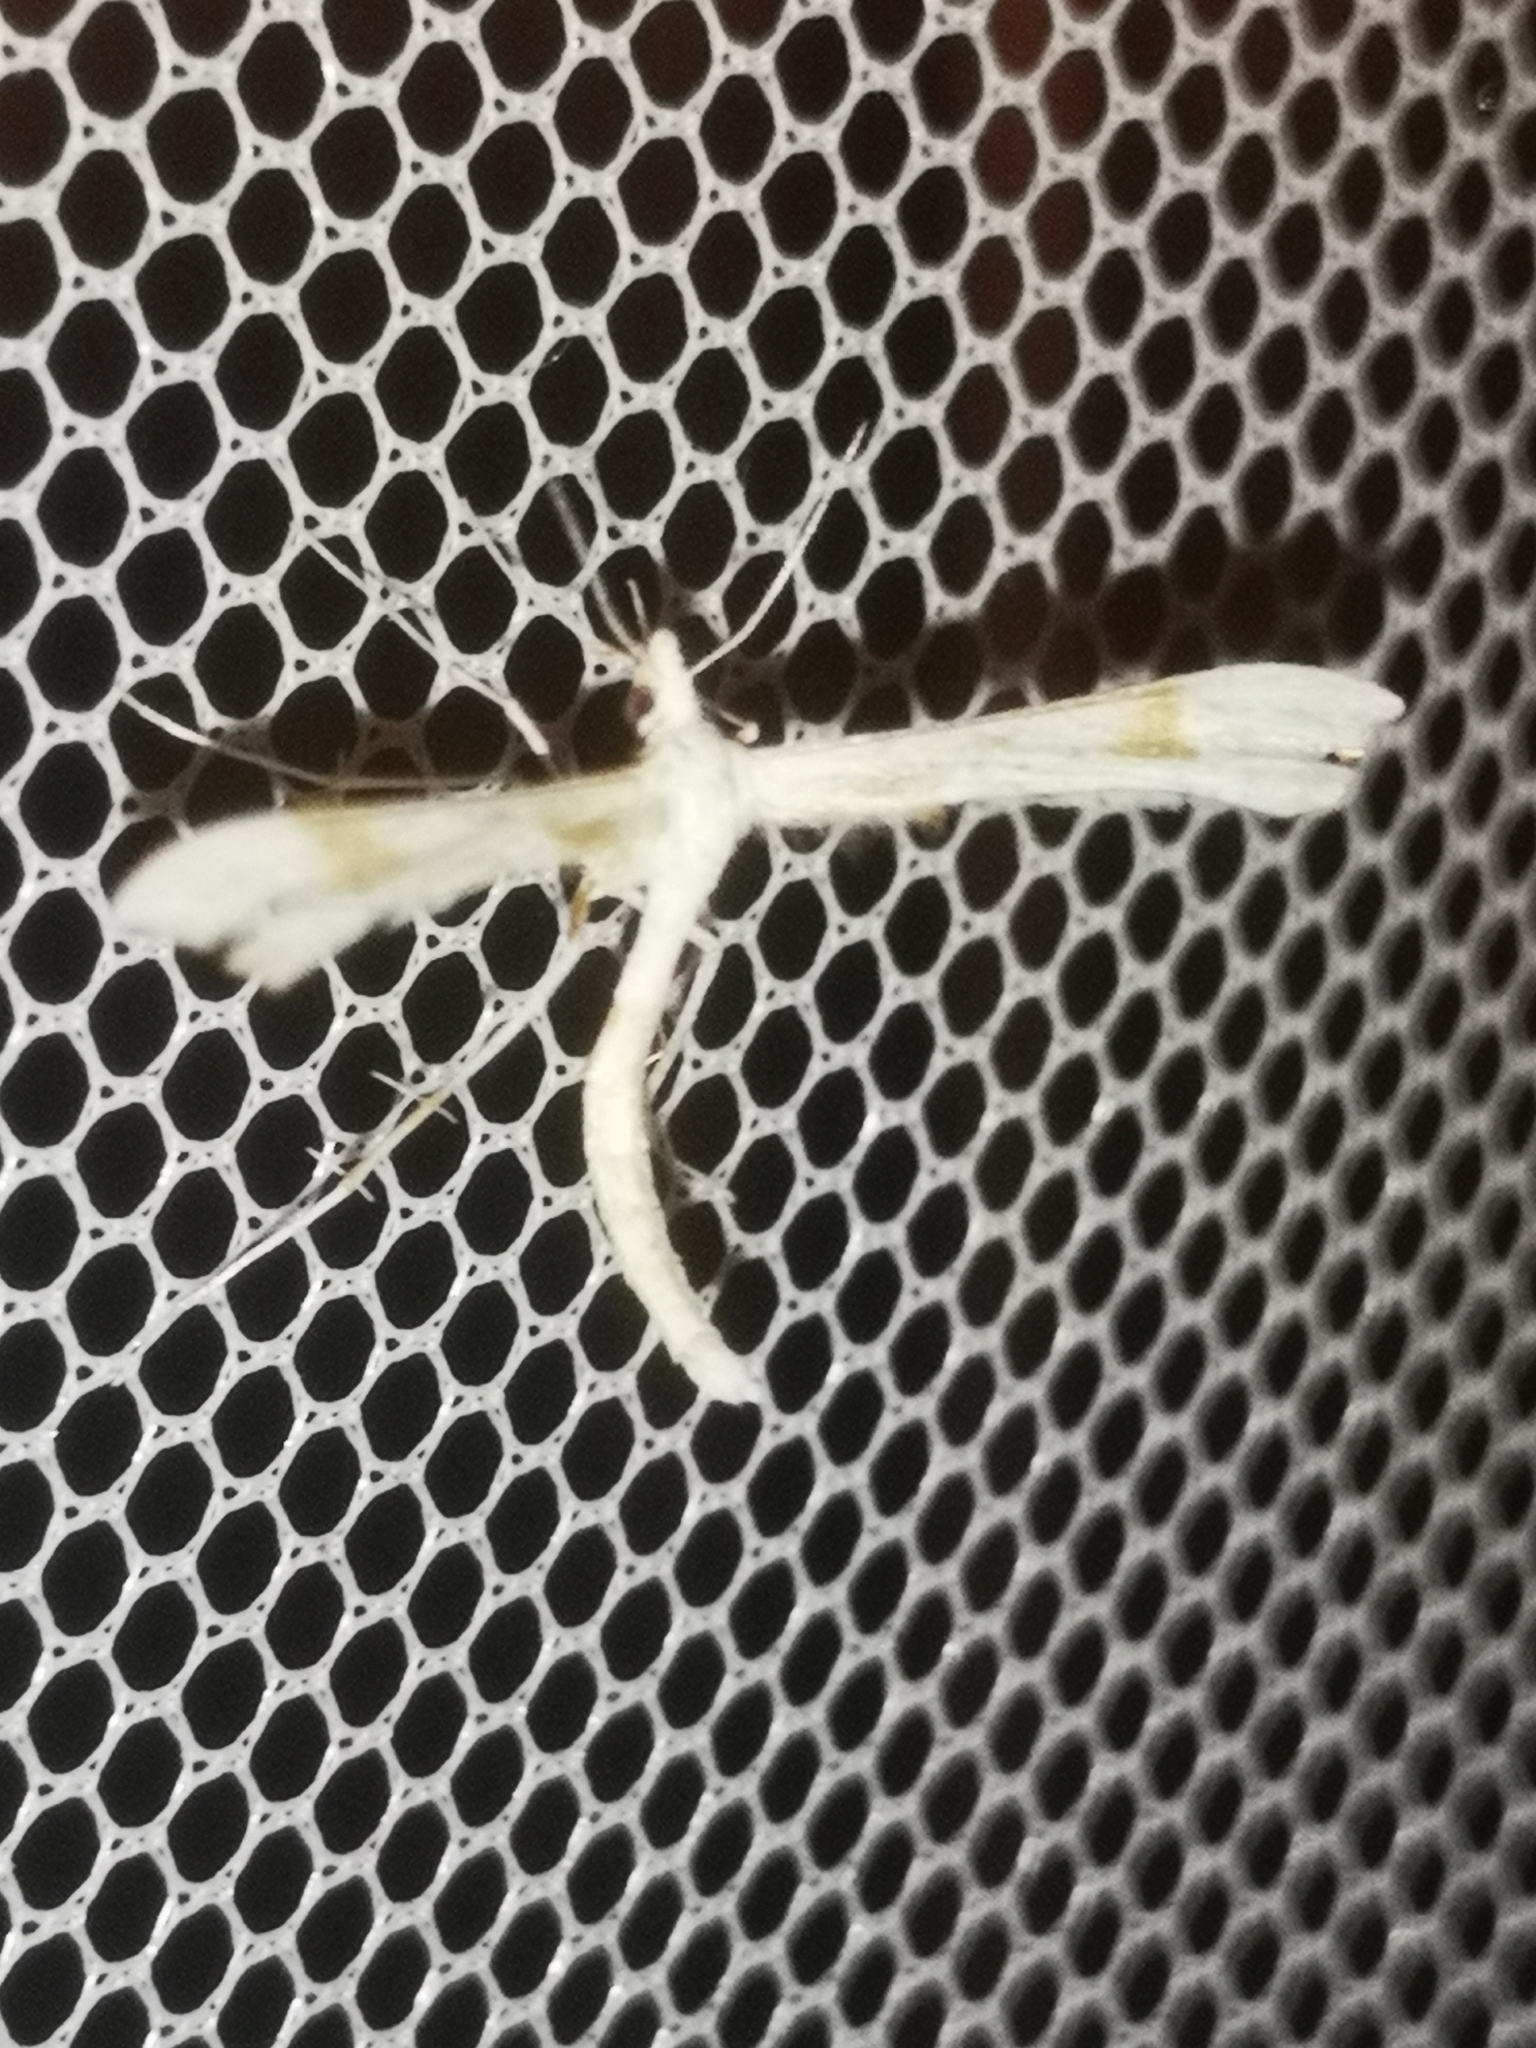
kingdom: Animalia
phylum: Arthropoda
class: Insecta
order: Lepidoptera
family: Pterophoridae
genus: Gillmeria
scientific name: Gillmeria pallidactyla
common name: Yarrow plume
